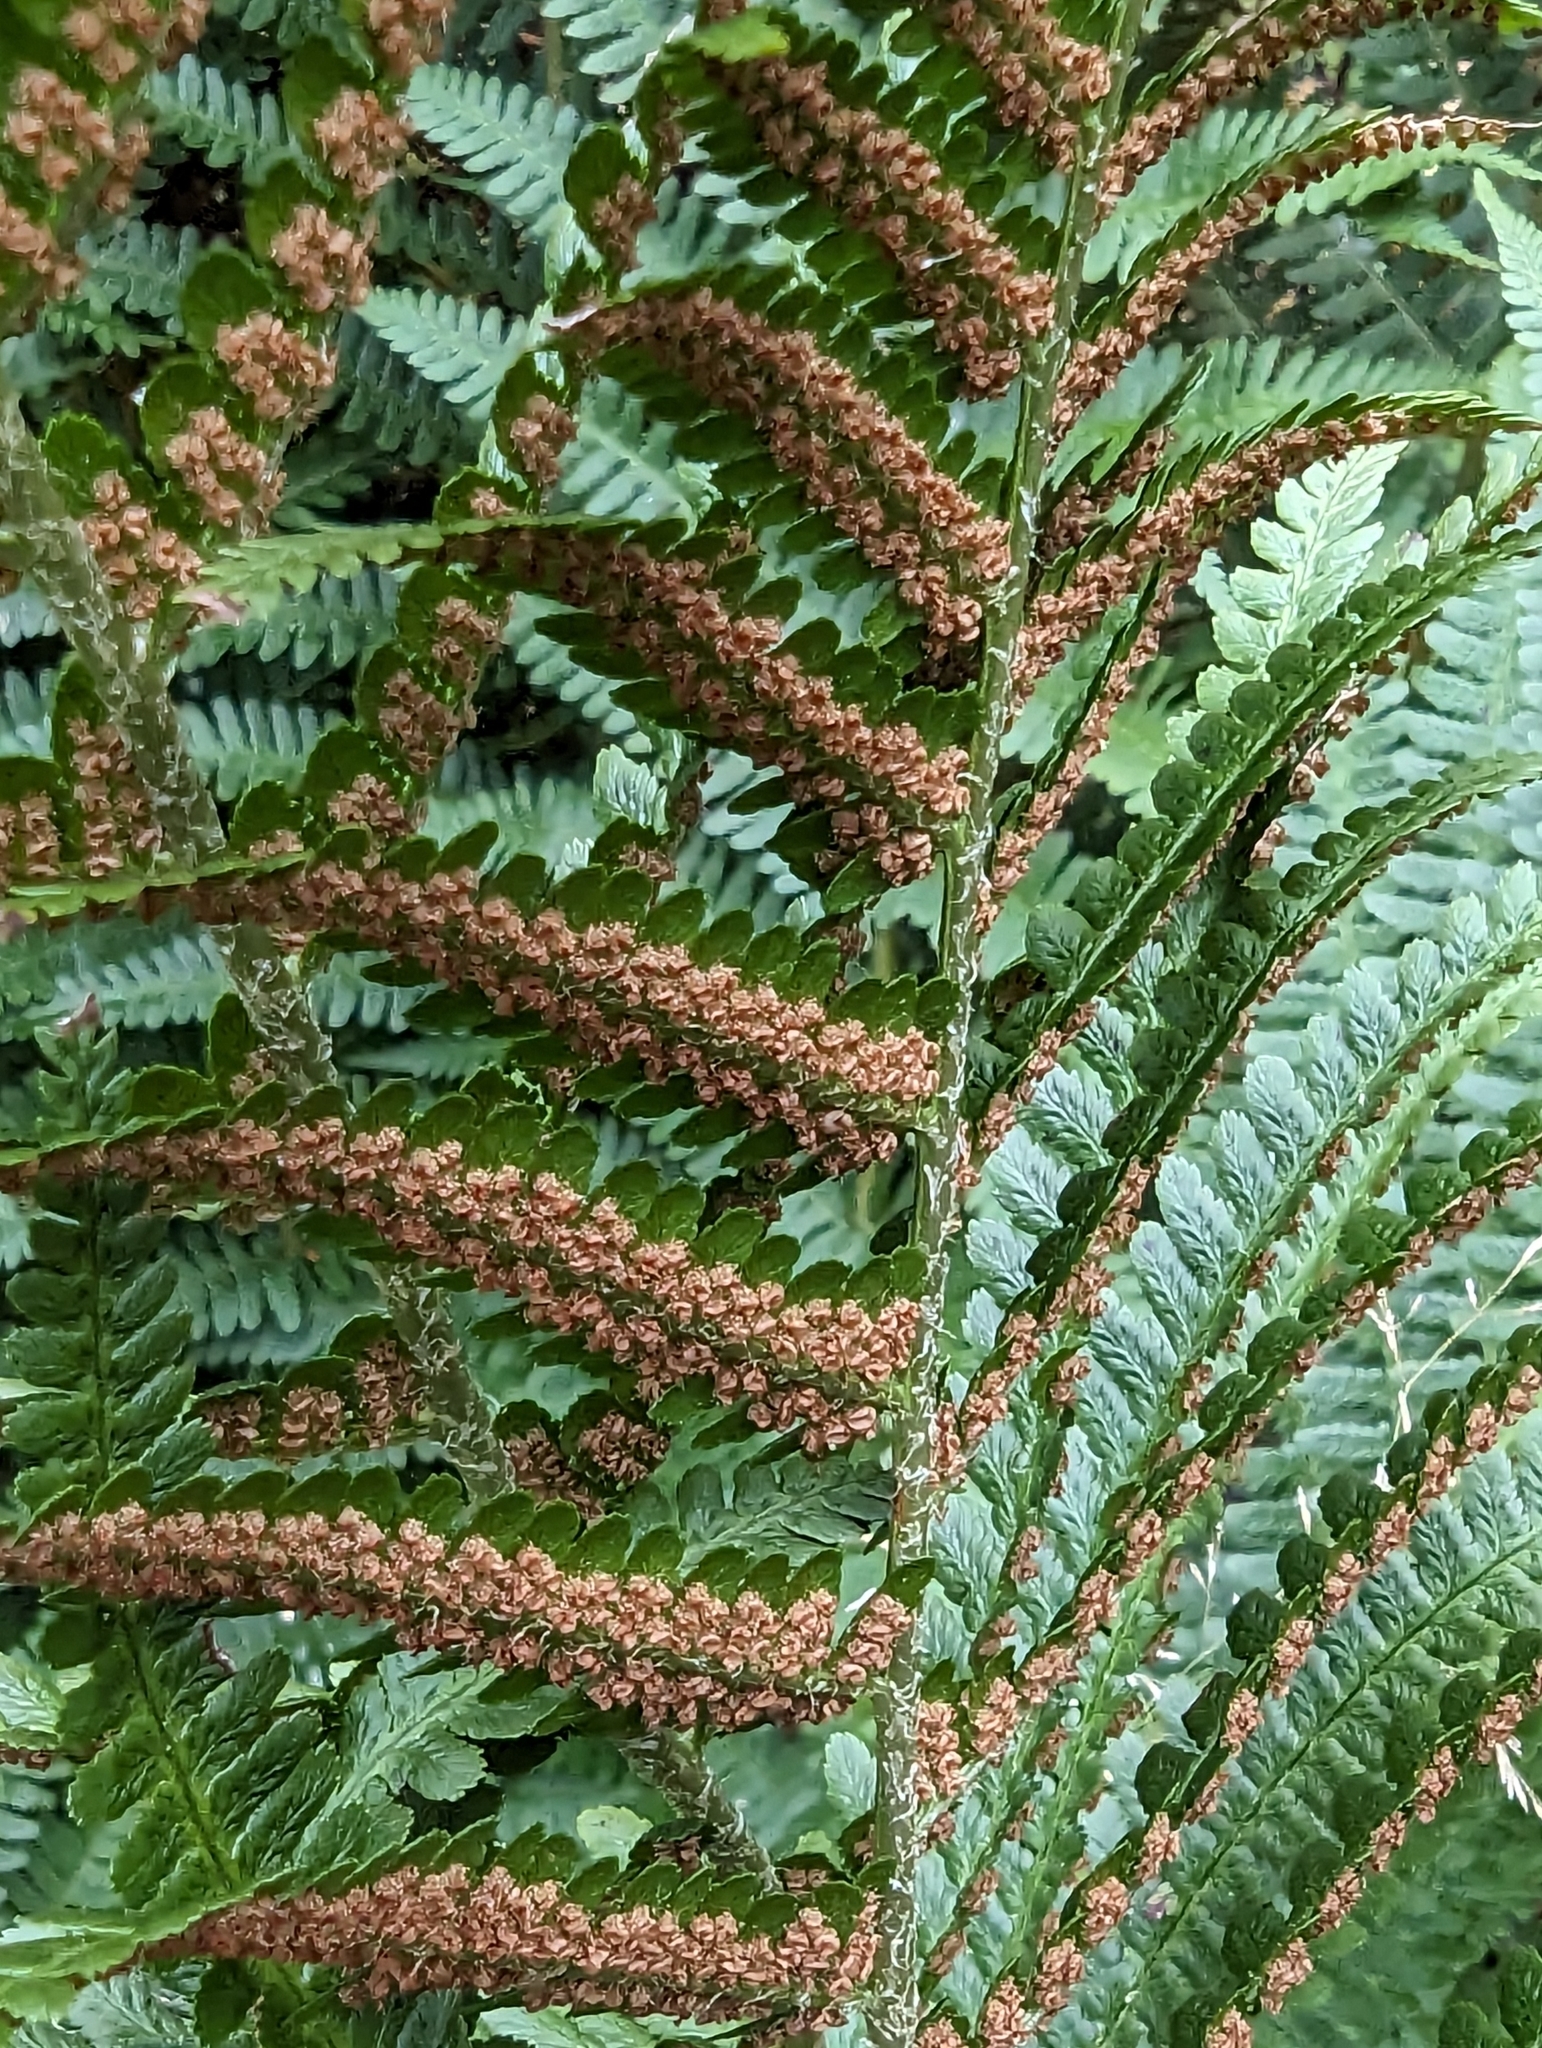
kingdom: Plantae
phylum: Tracheophyta
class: Polypodiopsida
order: Polypodiales
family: Dryopteridaceae
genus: Dryopteris
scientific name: Dryopteris filix-mas
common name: Male fern
